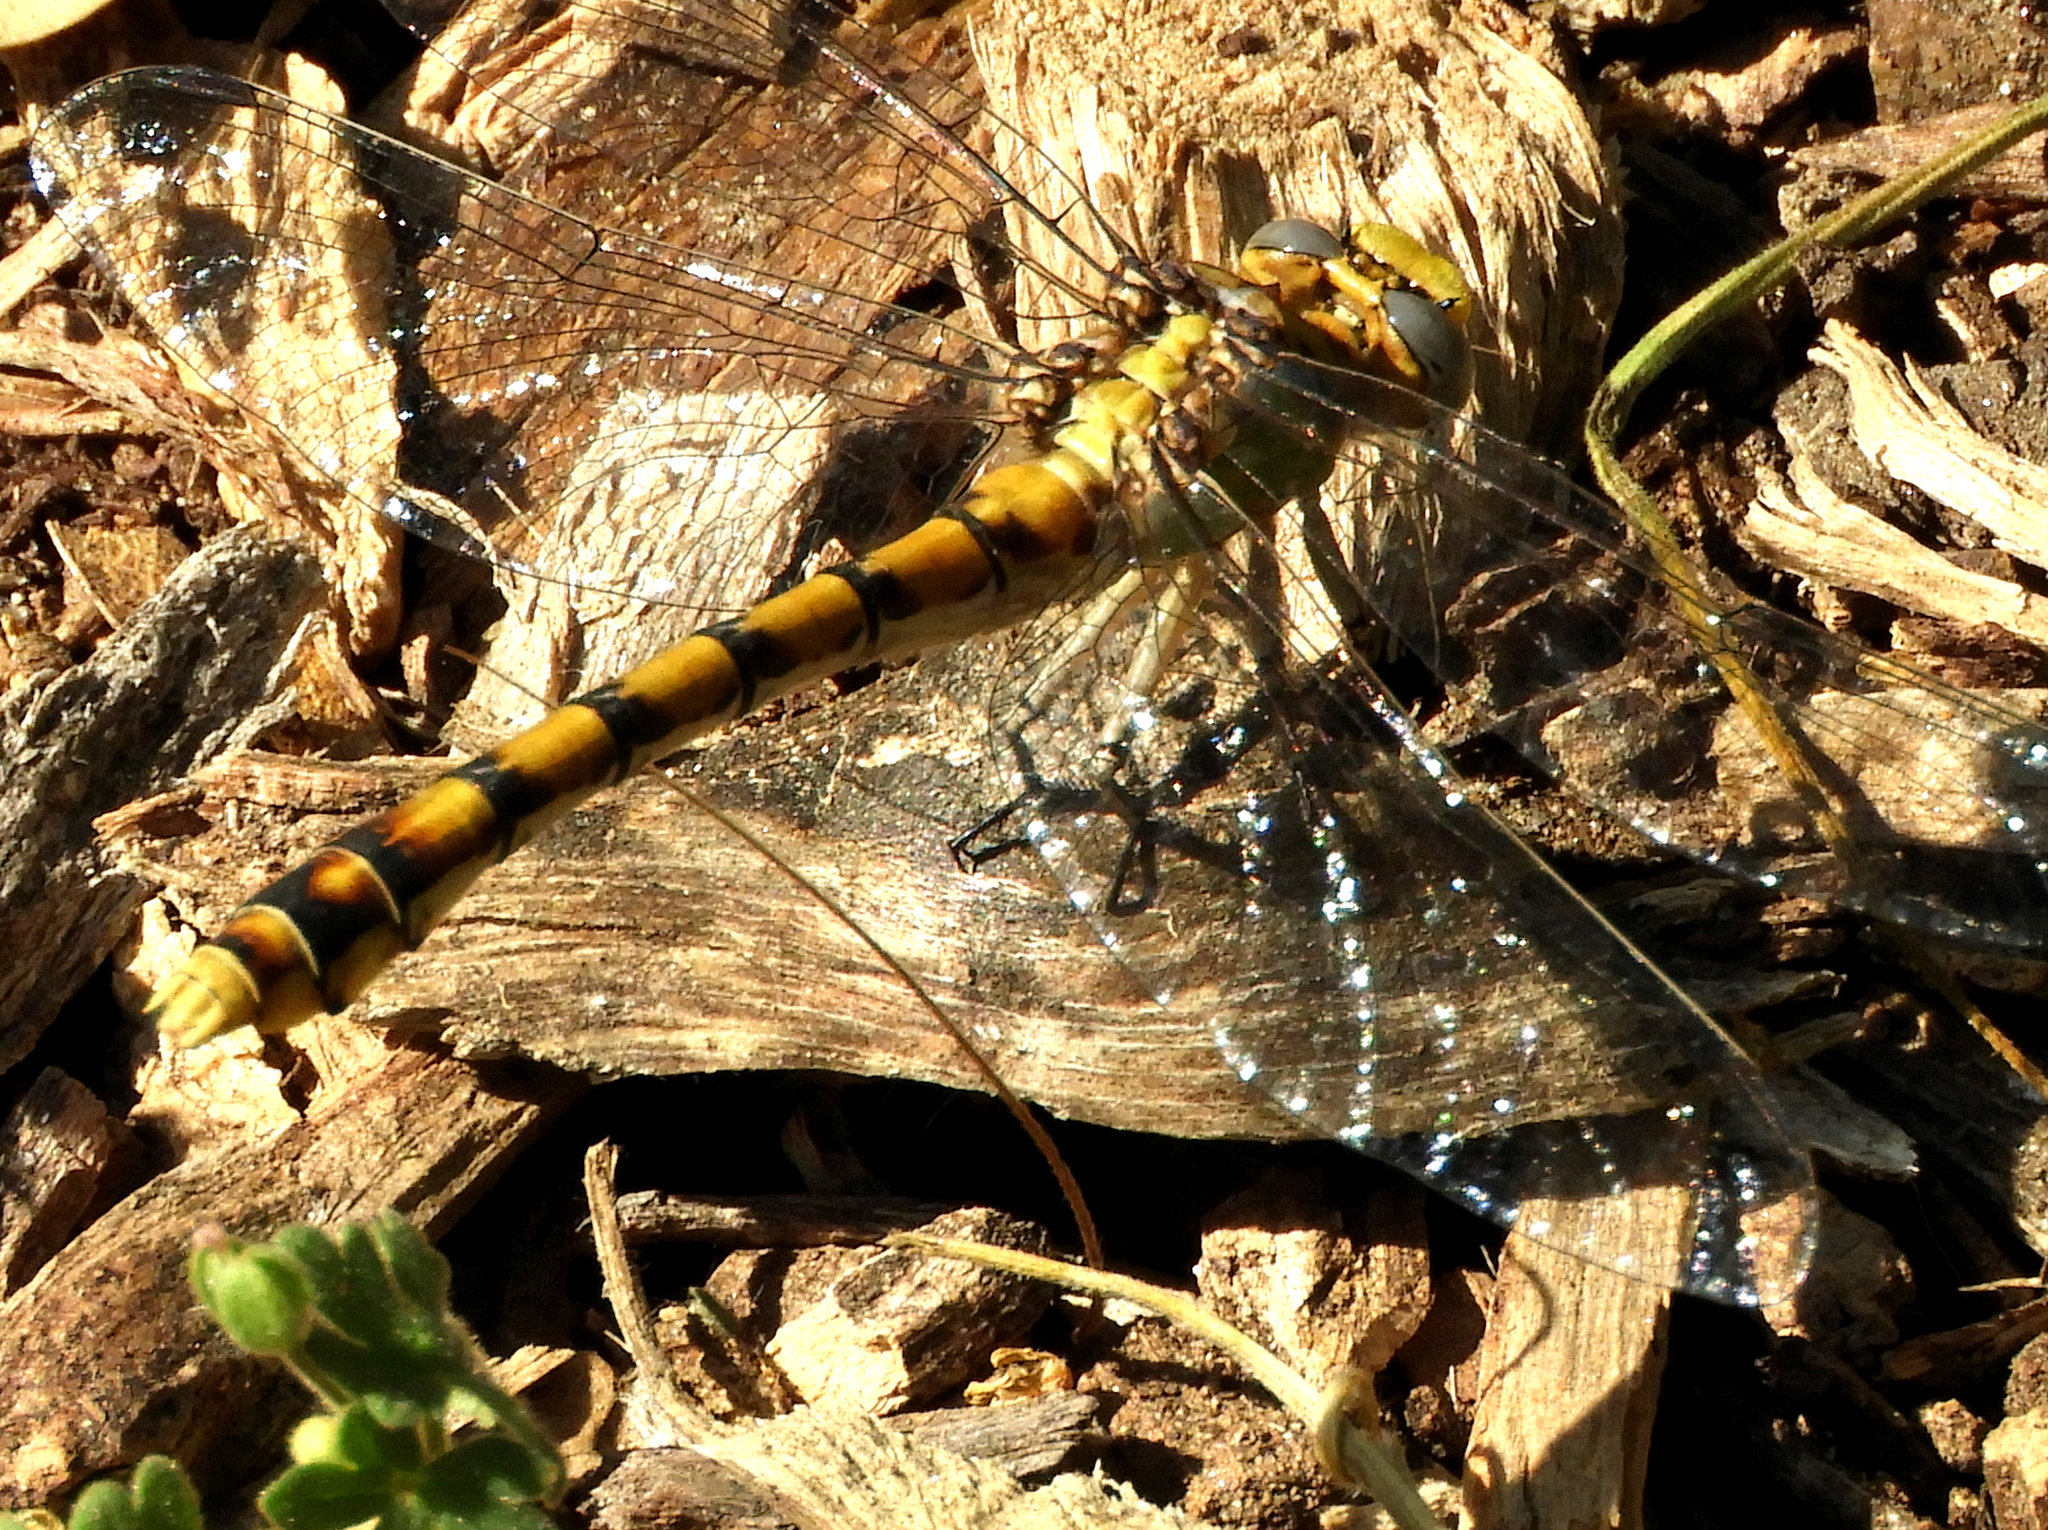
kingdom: Animalia
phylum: Arthropoda
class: Insecta
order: Odonata
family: Gomphidae
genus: Ophiogomphus
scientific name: Ophiogomphus occidentis
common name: Sinuous snaketail
